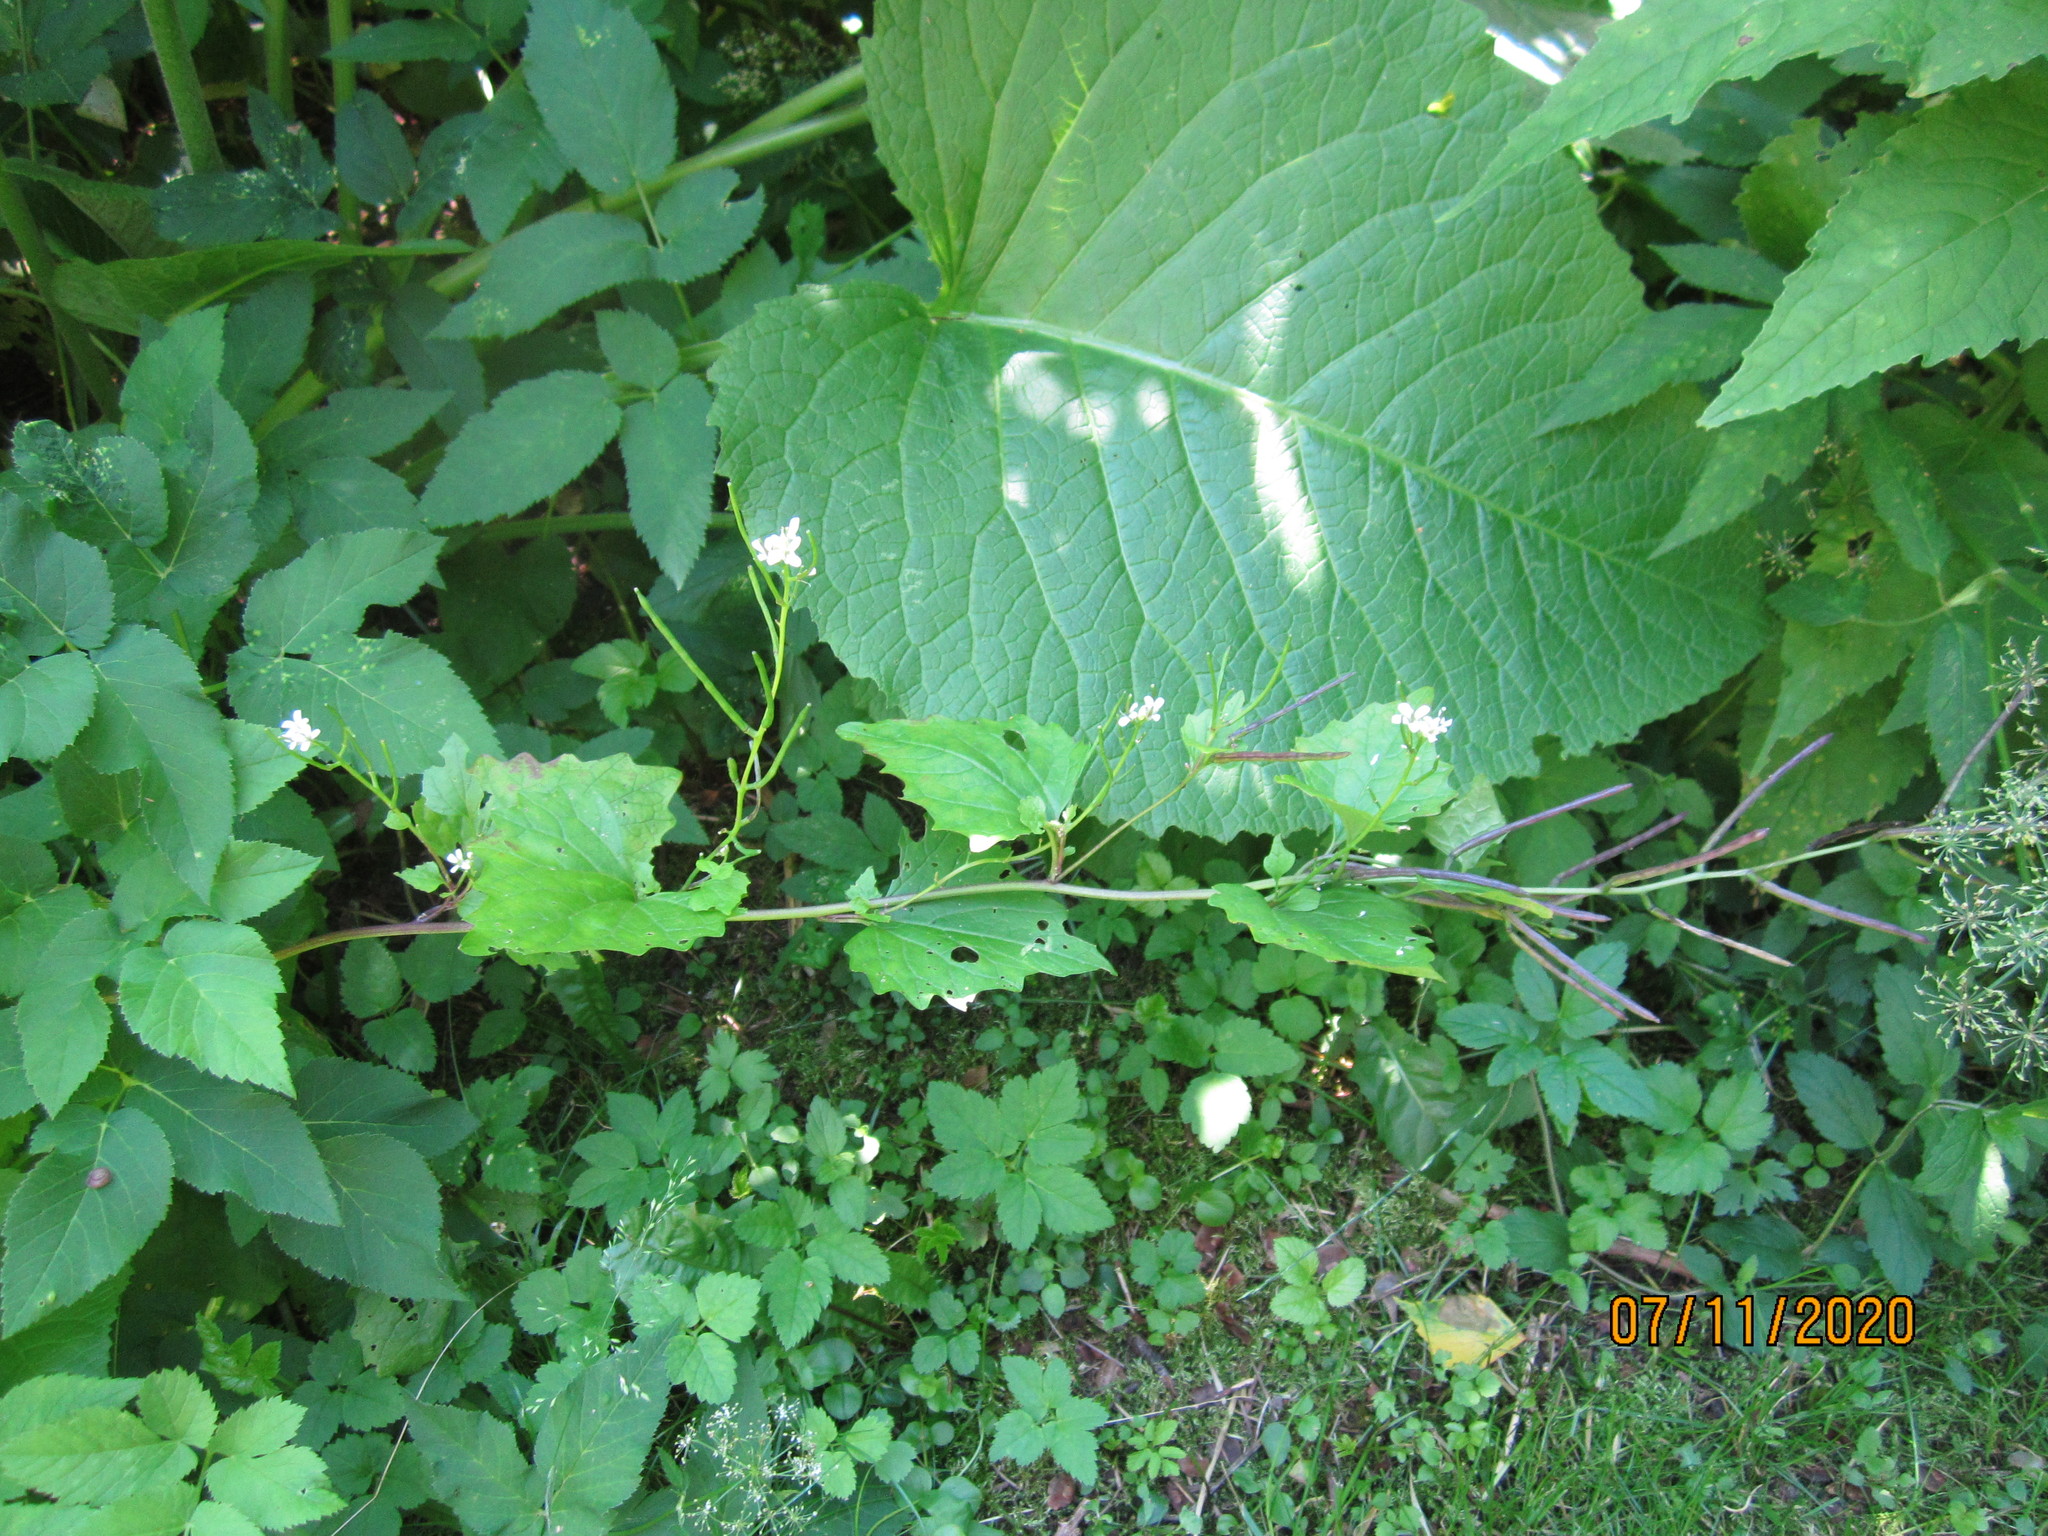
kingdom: Plantae
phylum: Tracheophyta
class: Magnoliopsida
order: Brassicales
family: Brassicaceae
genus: Alliaria
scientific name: Alliaria petiolata
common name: Garlic mustard
